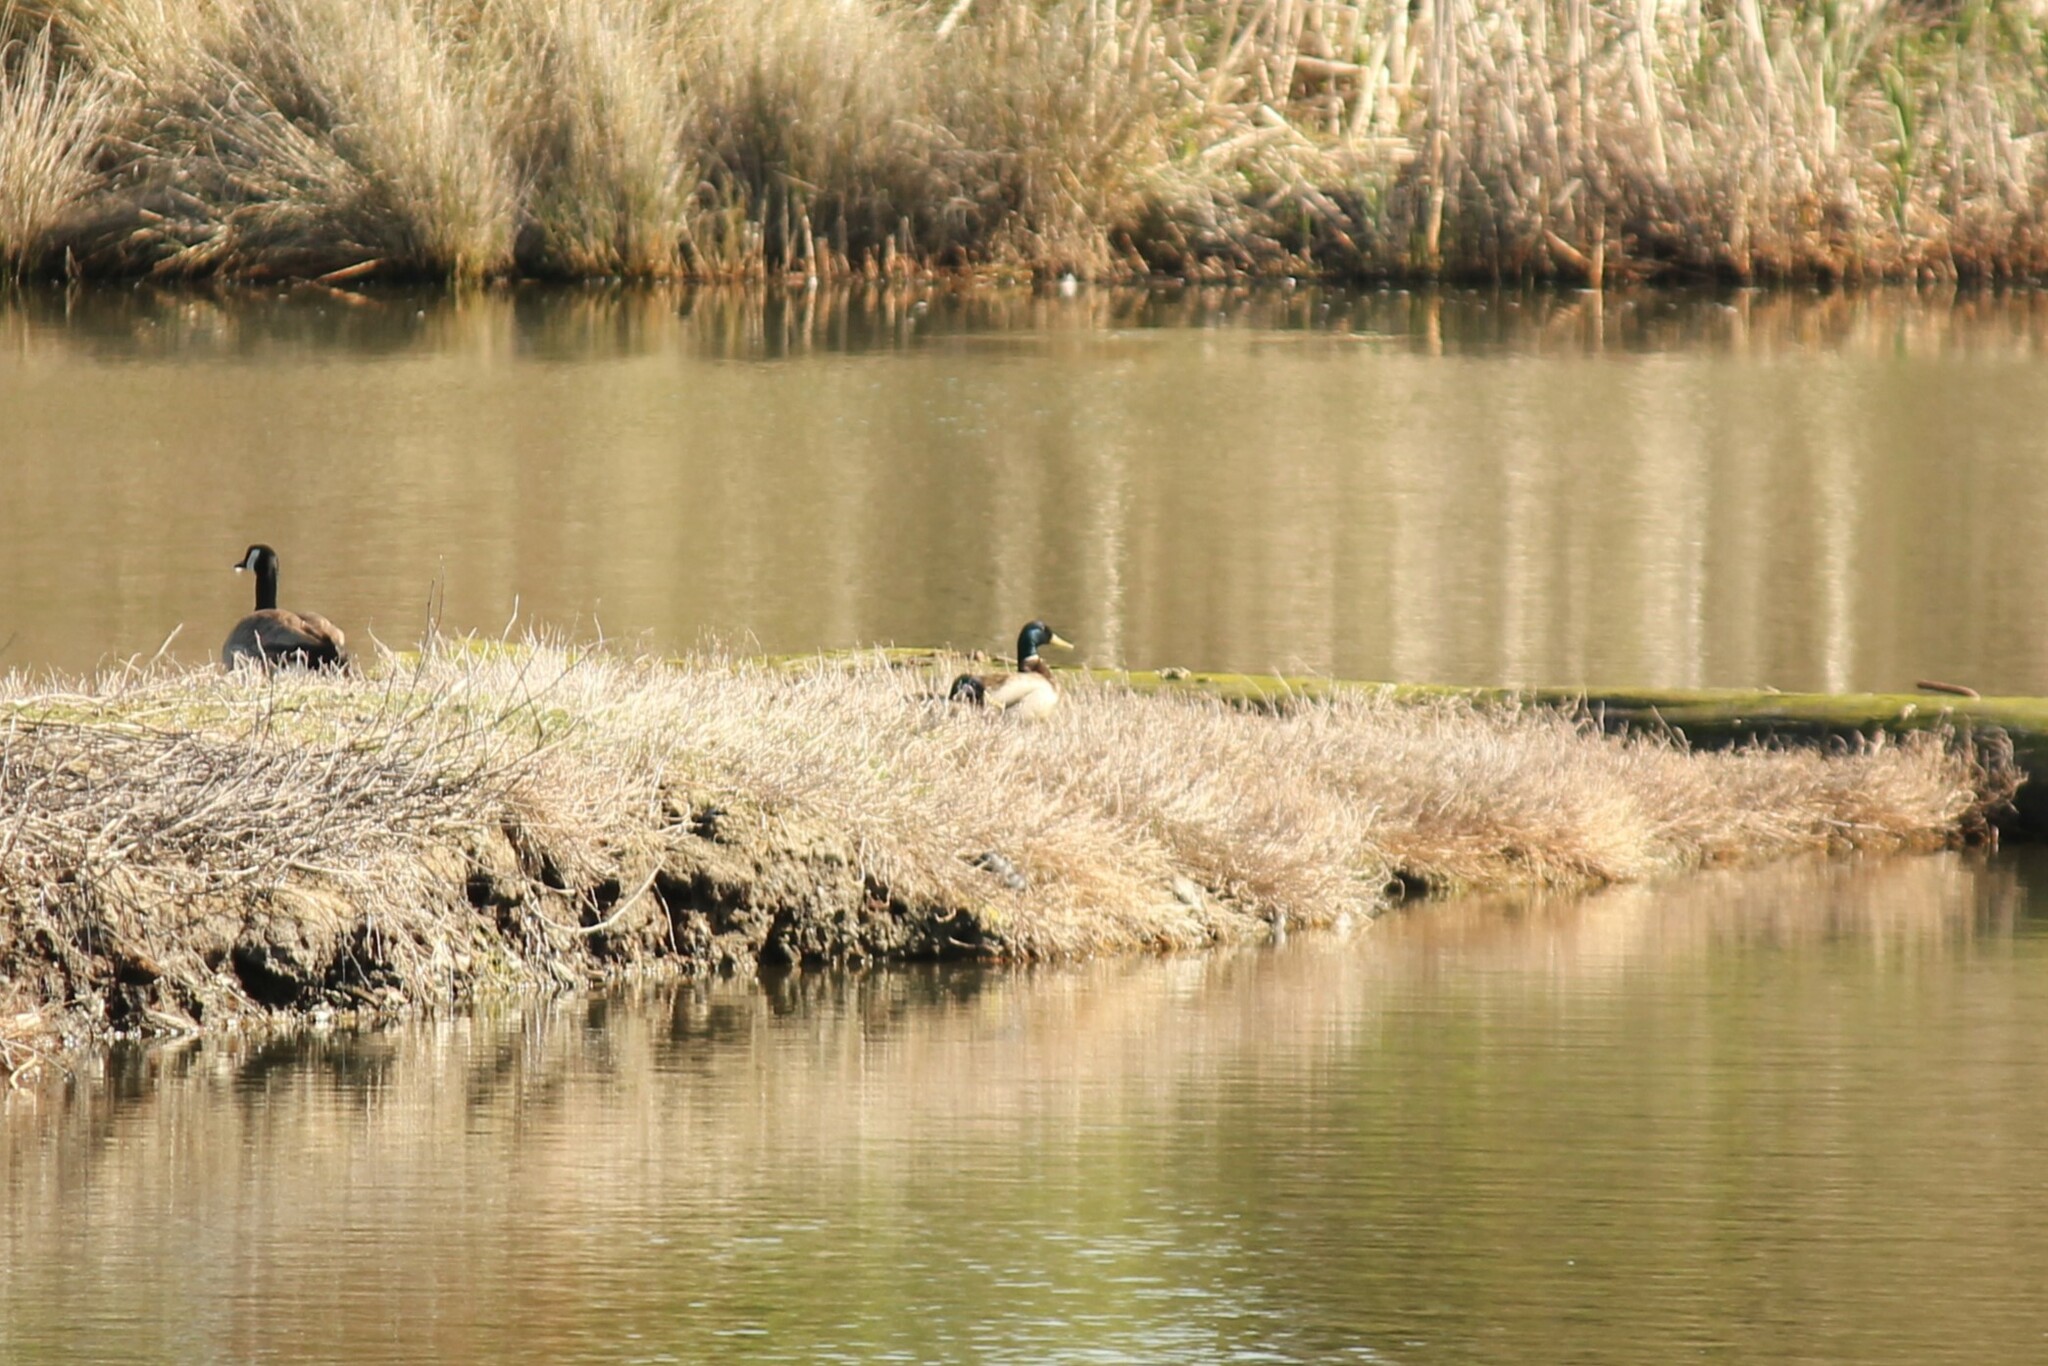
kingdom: Animalia
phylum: Chordata
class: Aves
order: Anseriformes
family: Anatidae
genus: Anas
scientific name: Anas platyrhynchos
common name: Mallard
